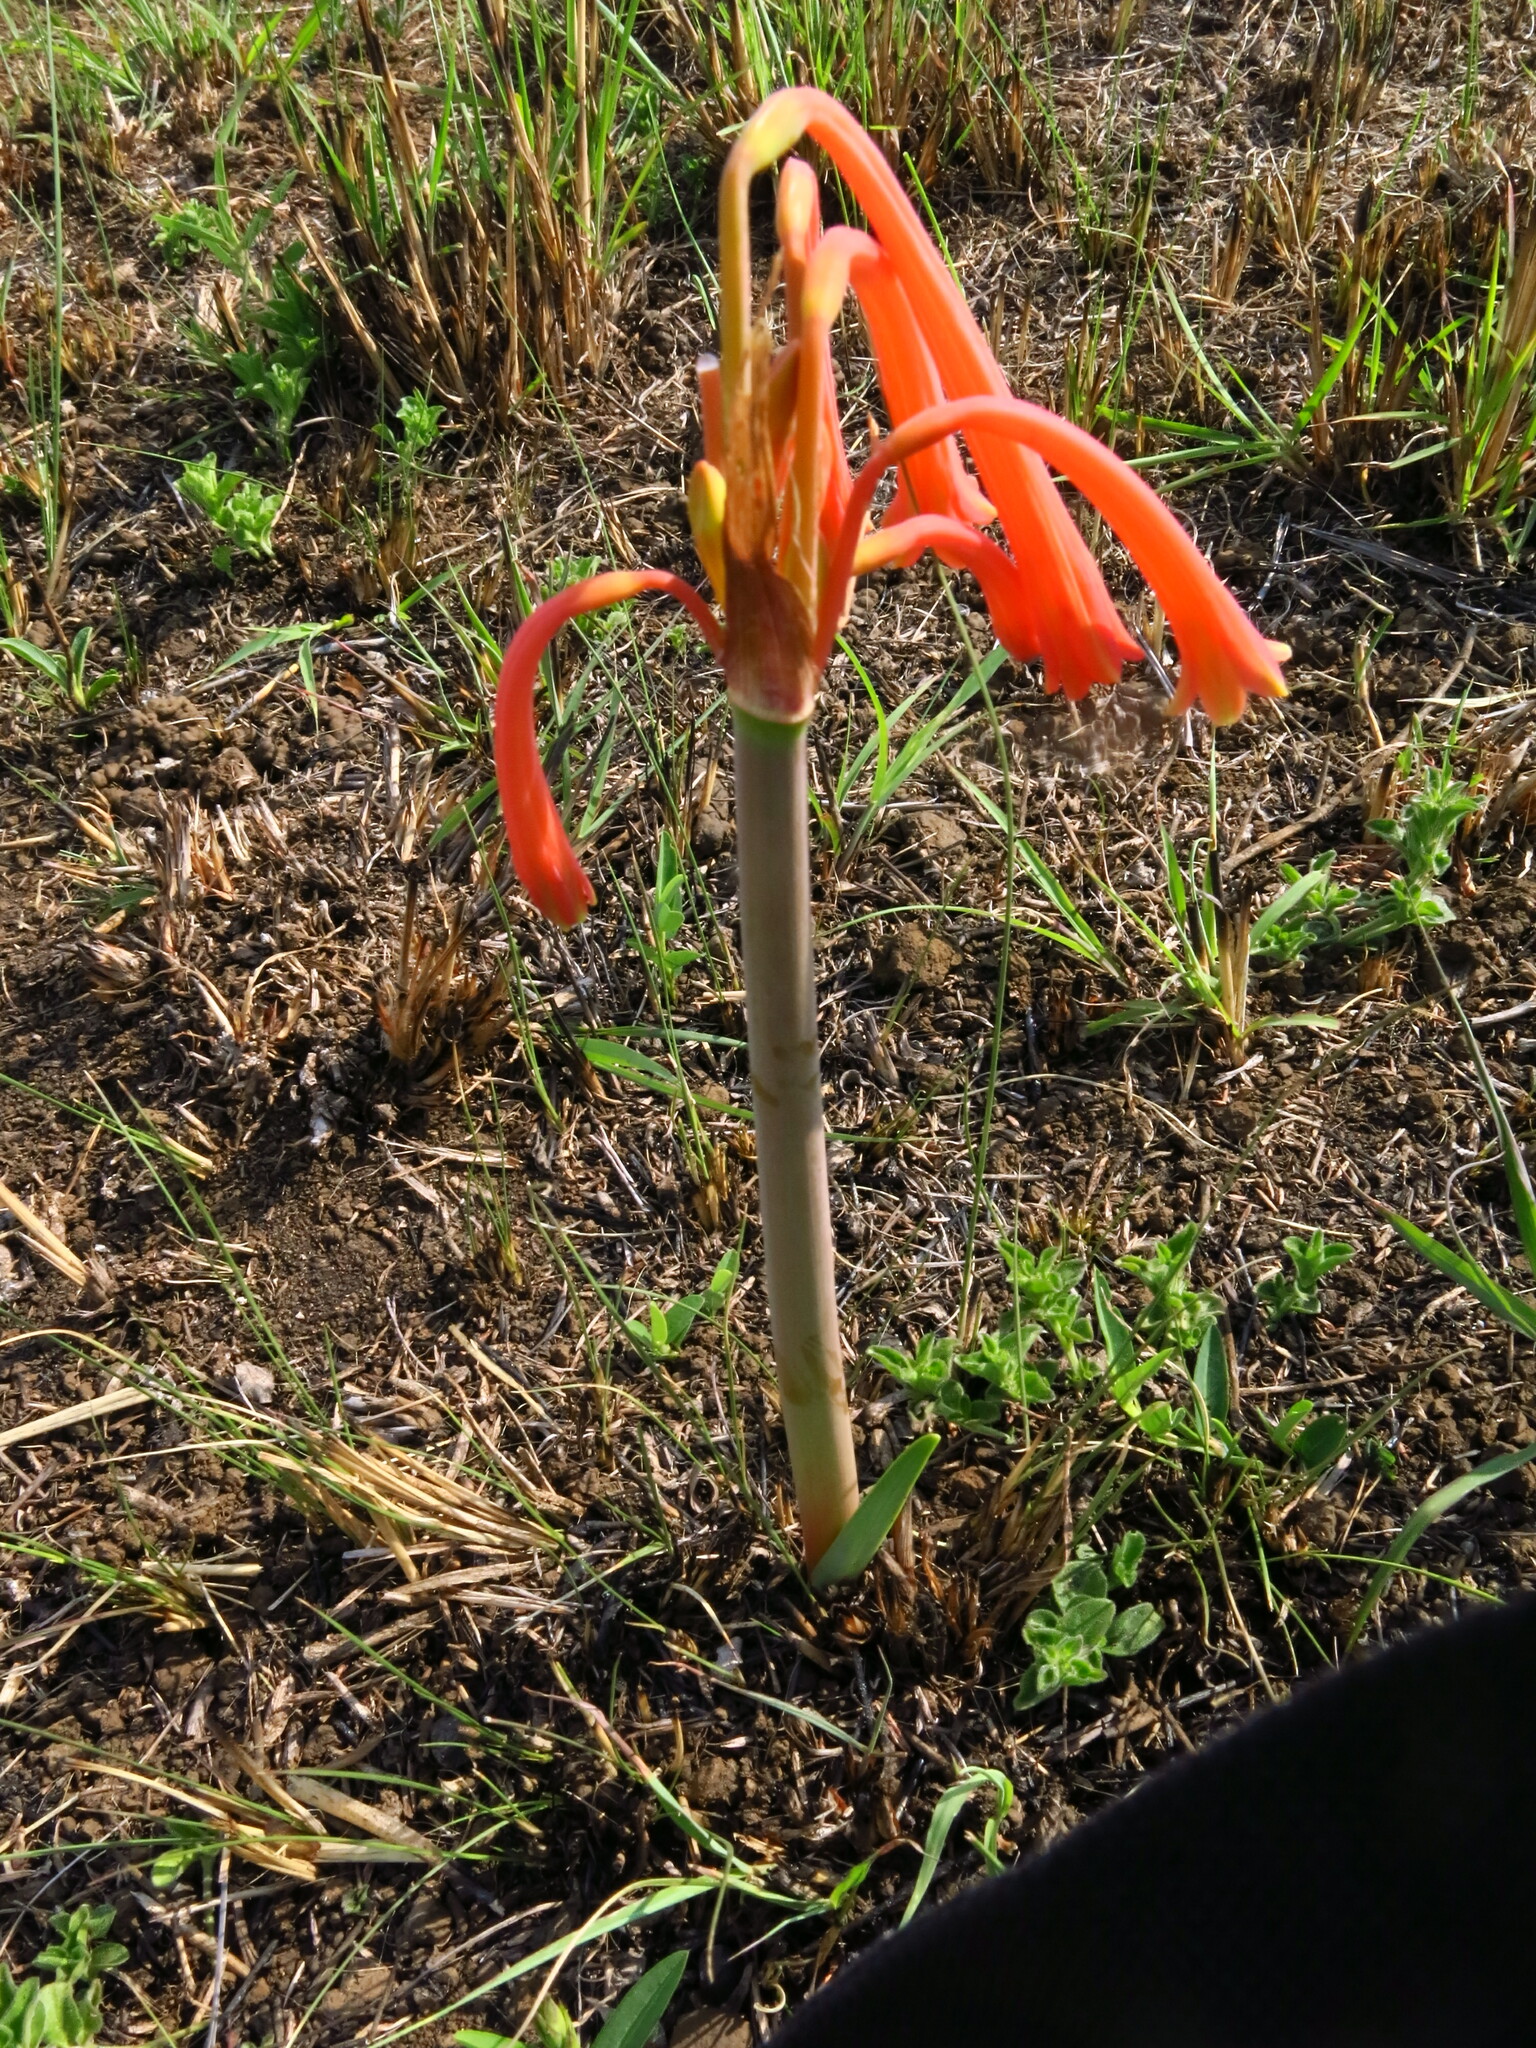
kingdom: Plantae
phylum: Tracheophyta
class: Liliopsida
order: Asparagales
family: Amaryllidaceae
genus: Cyrtanthus
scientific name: Cyrtanthus tuckii
